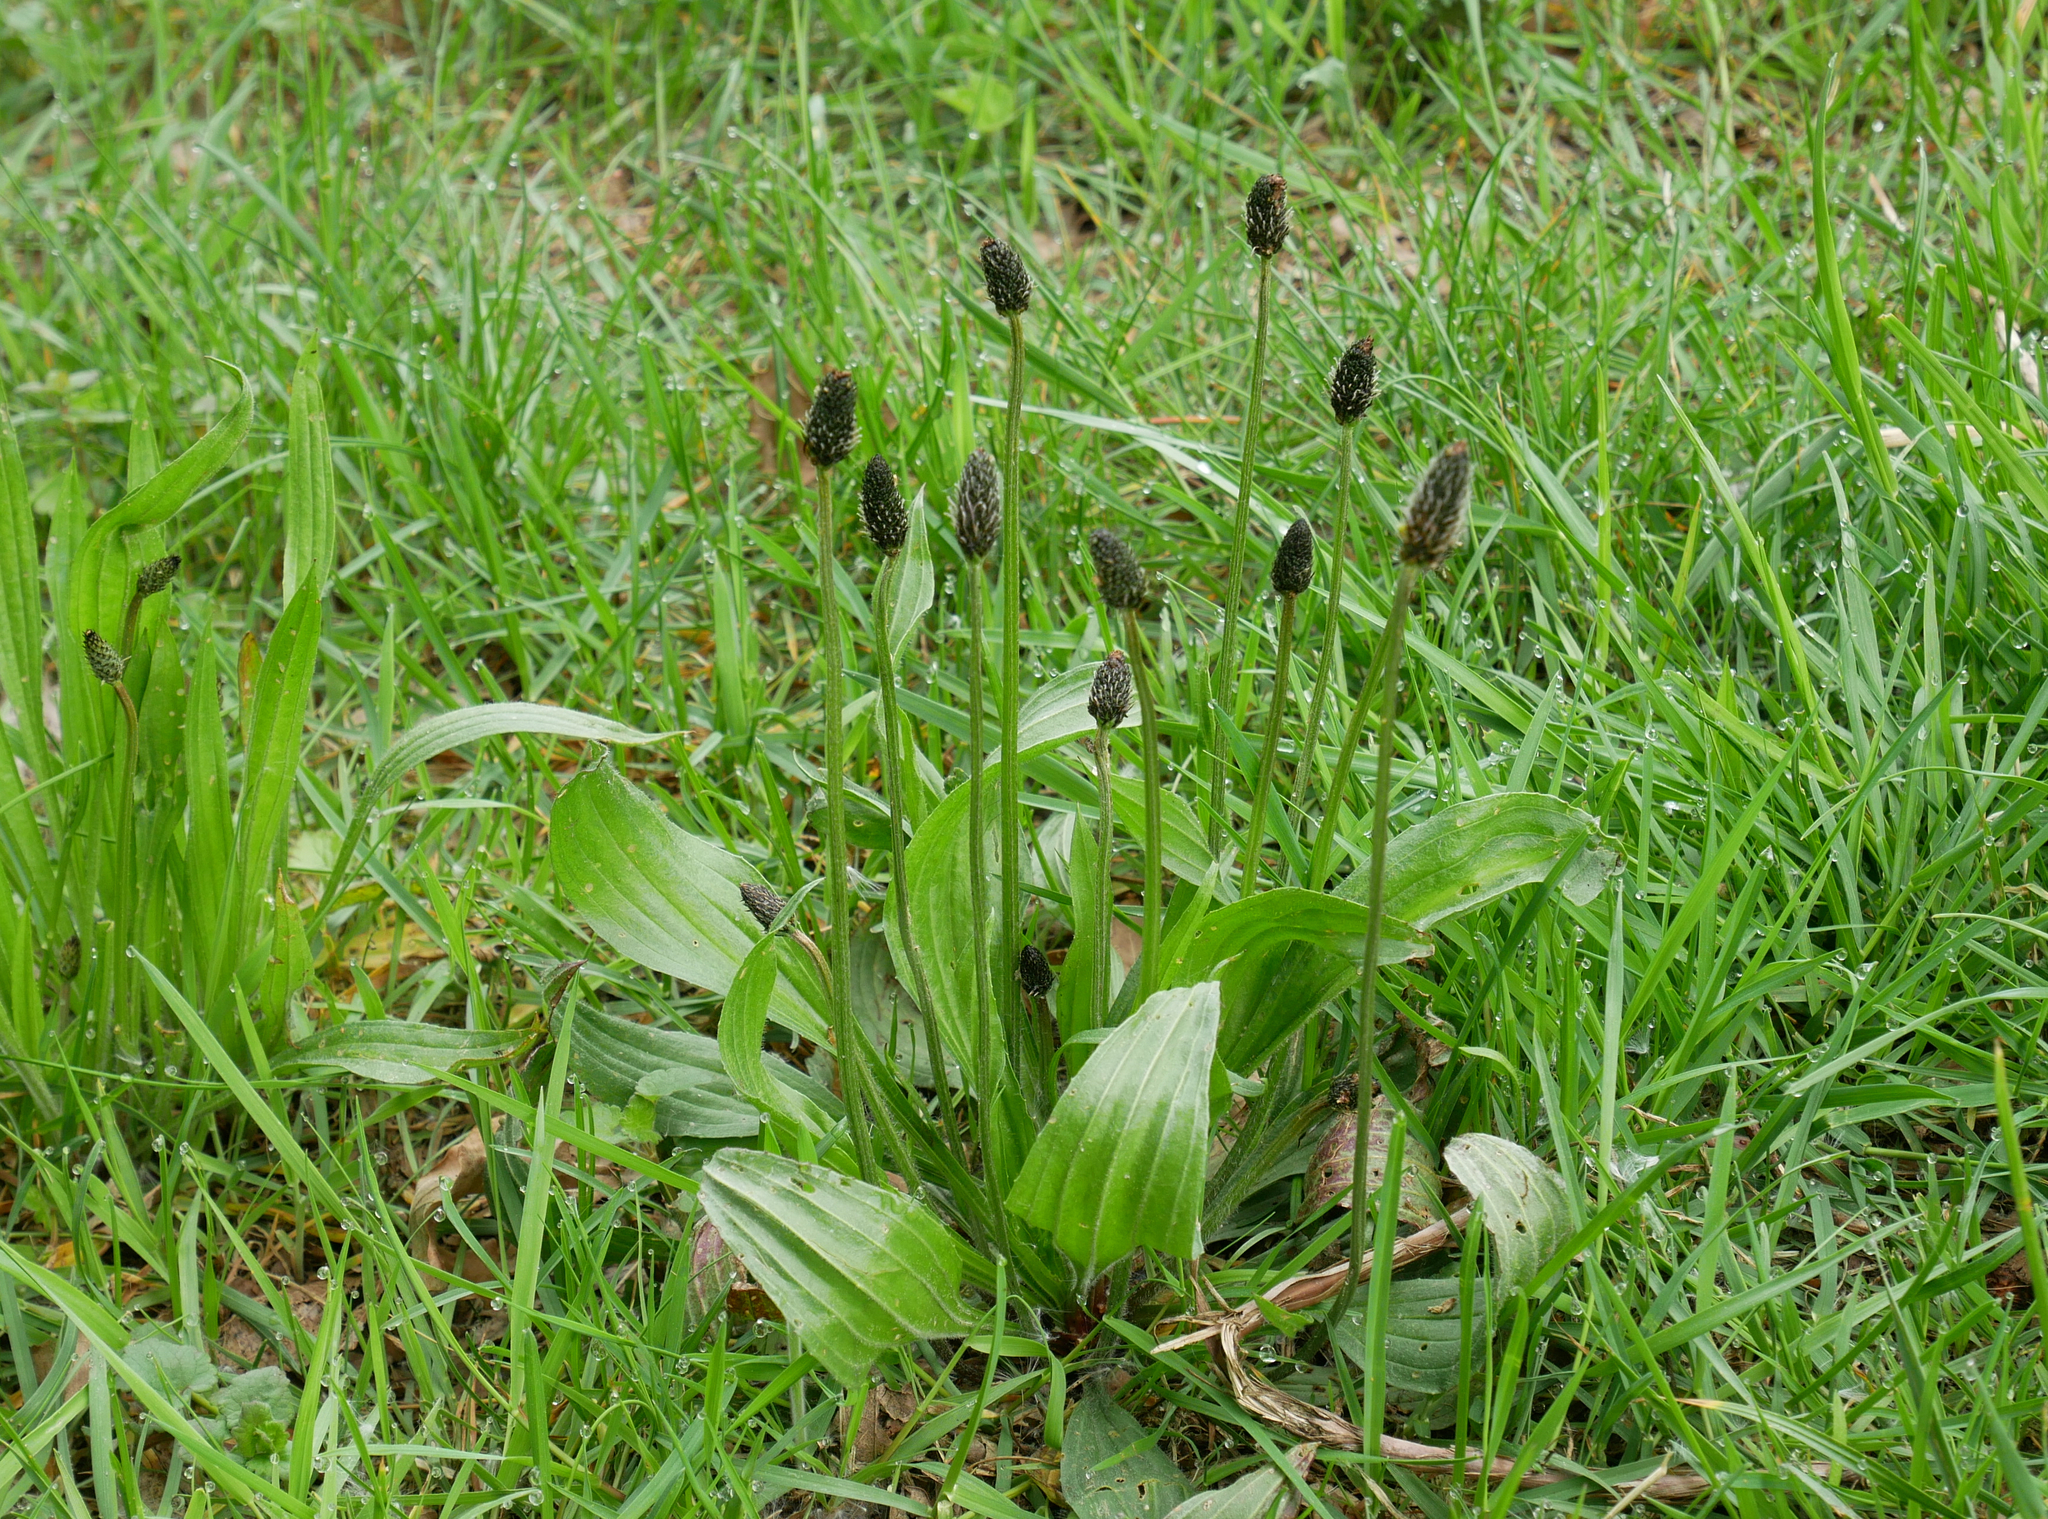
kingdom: Plantae
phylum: Tracheophyta
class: Magnoliopsida
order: Lamiales
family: Plantaginaceae
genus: Plantago
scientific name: Plantago lanceolata
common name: Ribwort plantain
